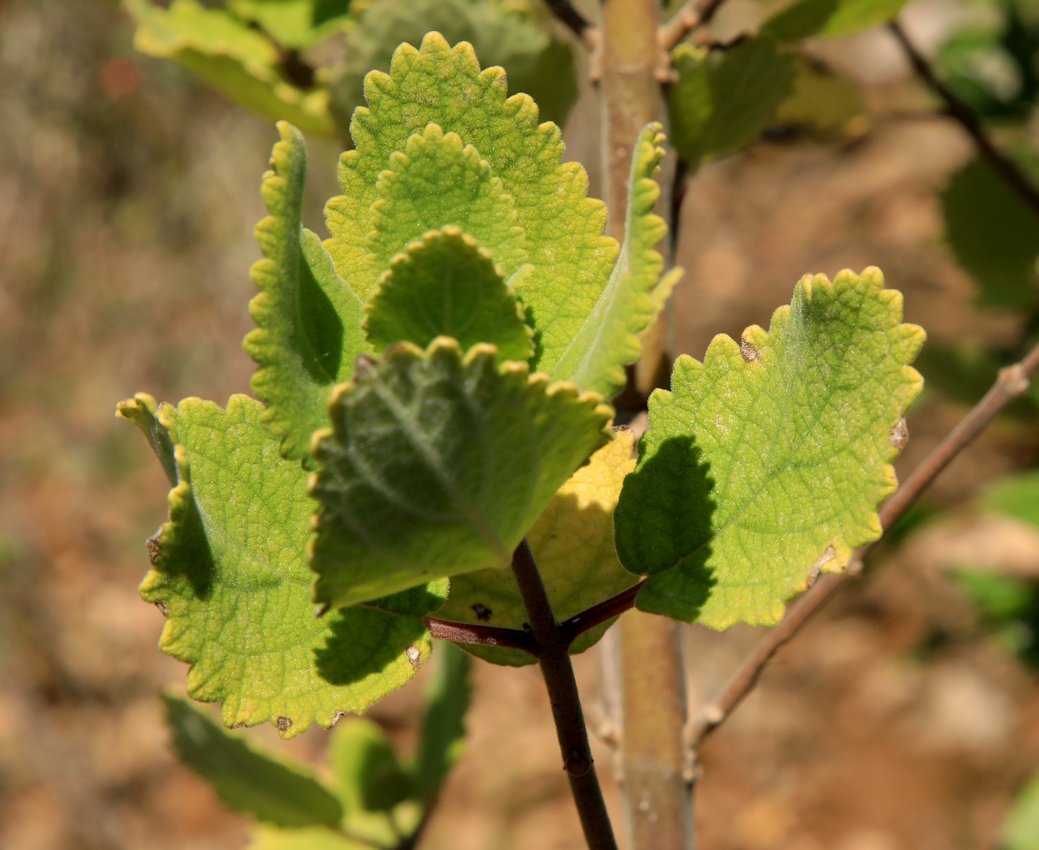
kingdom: Plantae
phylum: Tracheophyta
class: Magnoliopsida
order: Lamiales
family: Lamiaceae
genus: Tetradenia
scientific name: Tetradenia riparia
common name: Gingerbush
